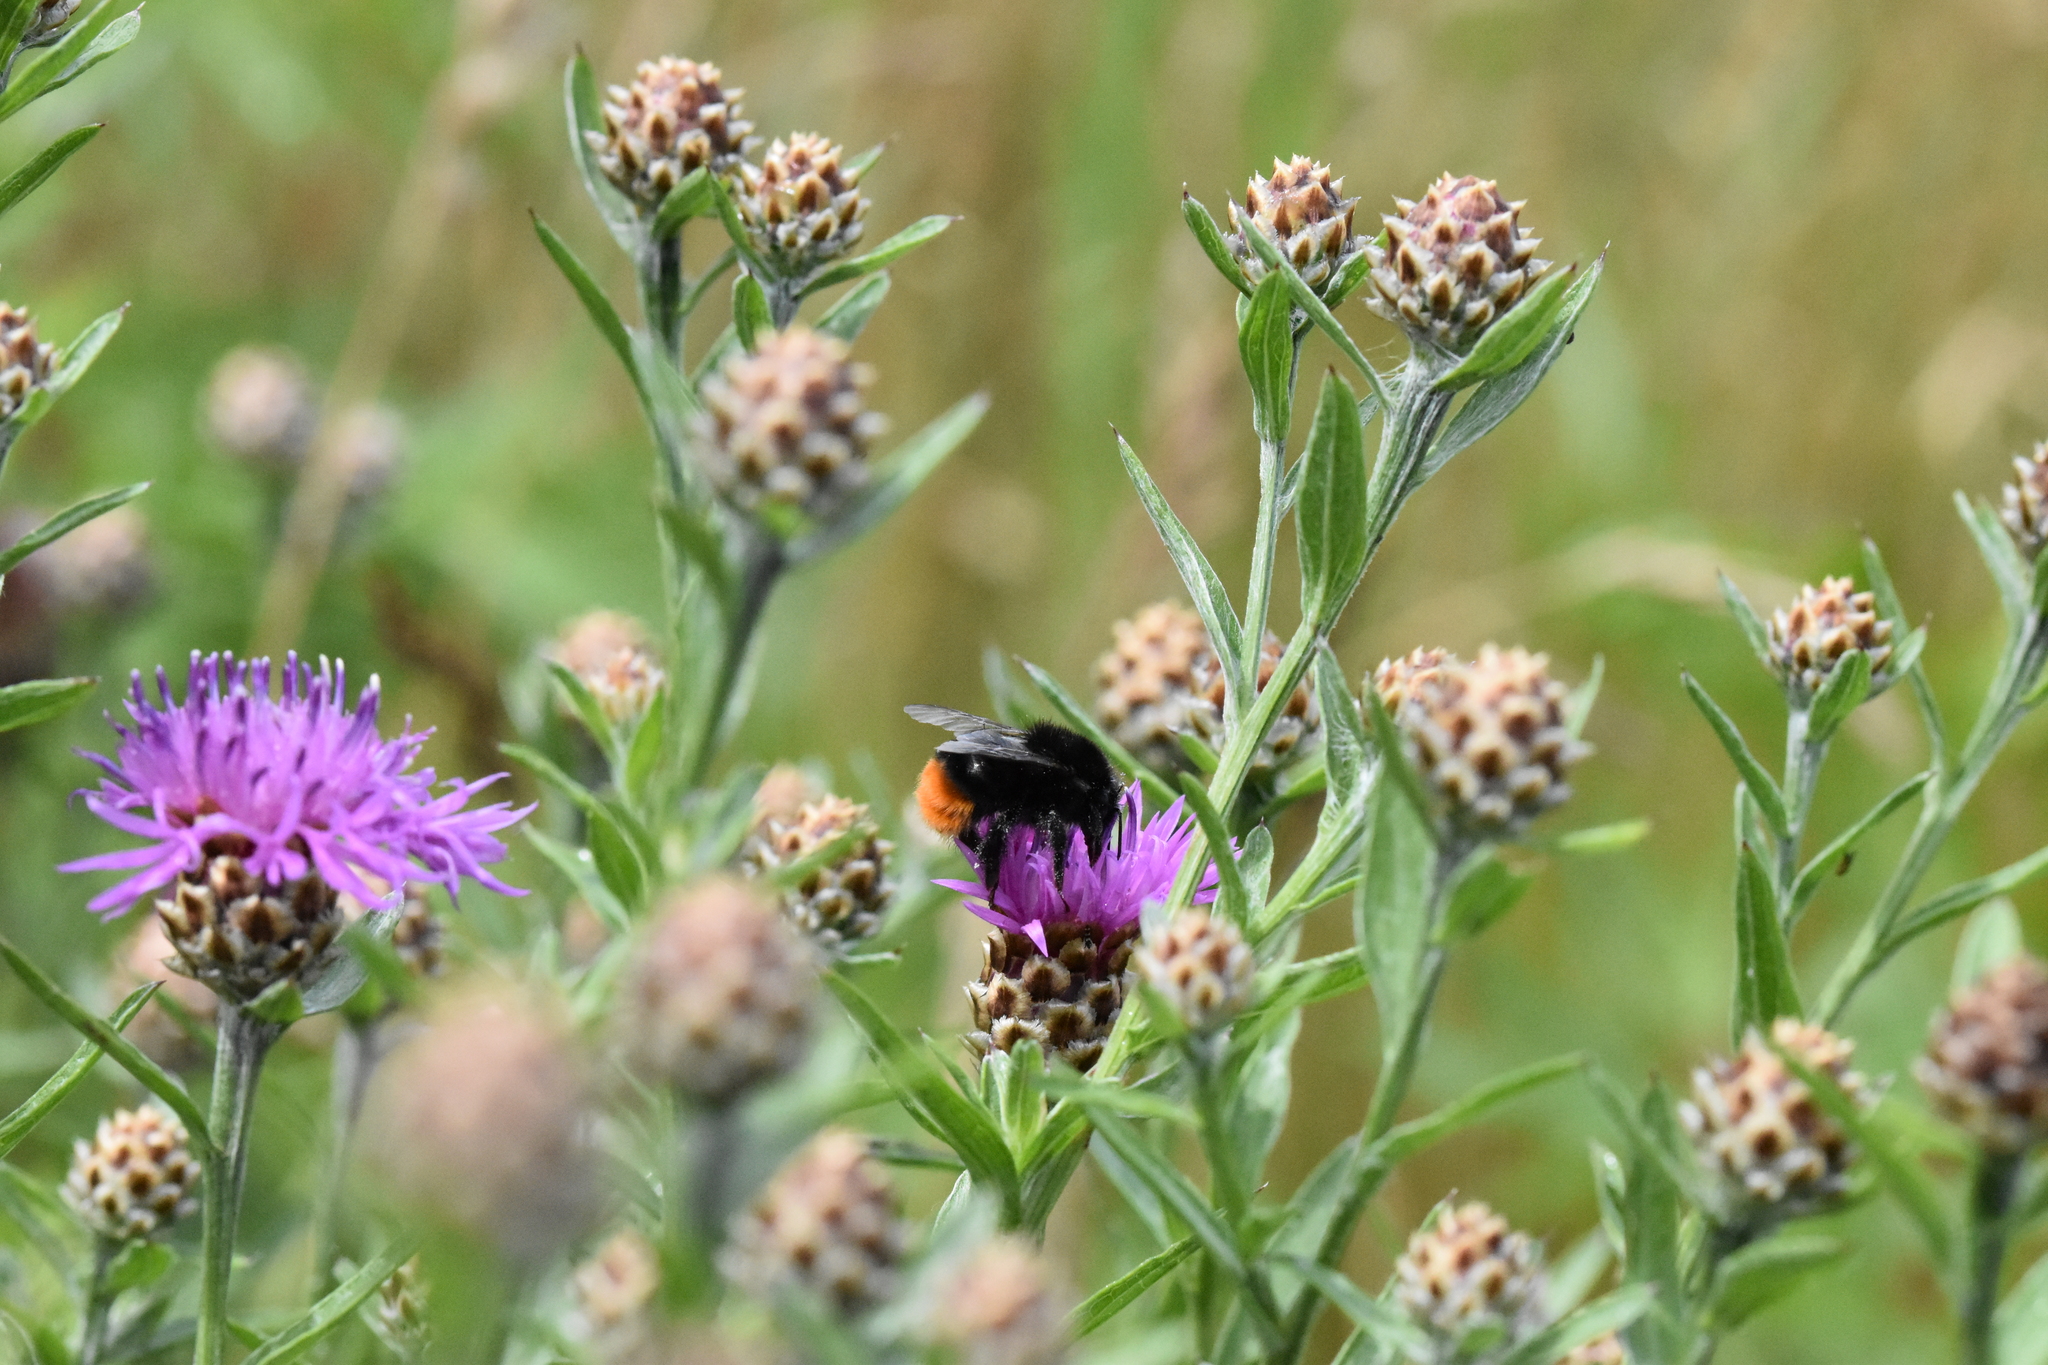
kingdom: Animalia
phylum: Arthropoda
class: Insecta
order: Hymenoptera
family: Apidae
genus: Bombus
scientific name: Bombus lapidarius
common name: Large red-tailed humble-bee
